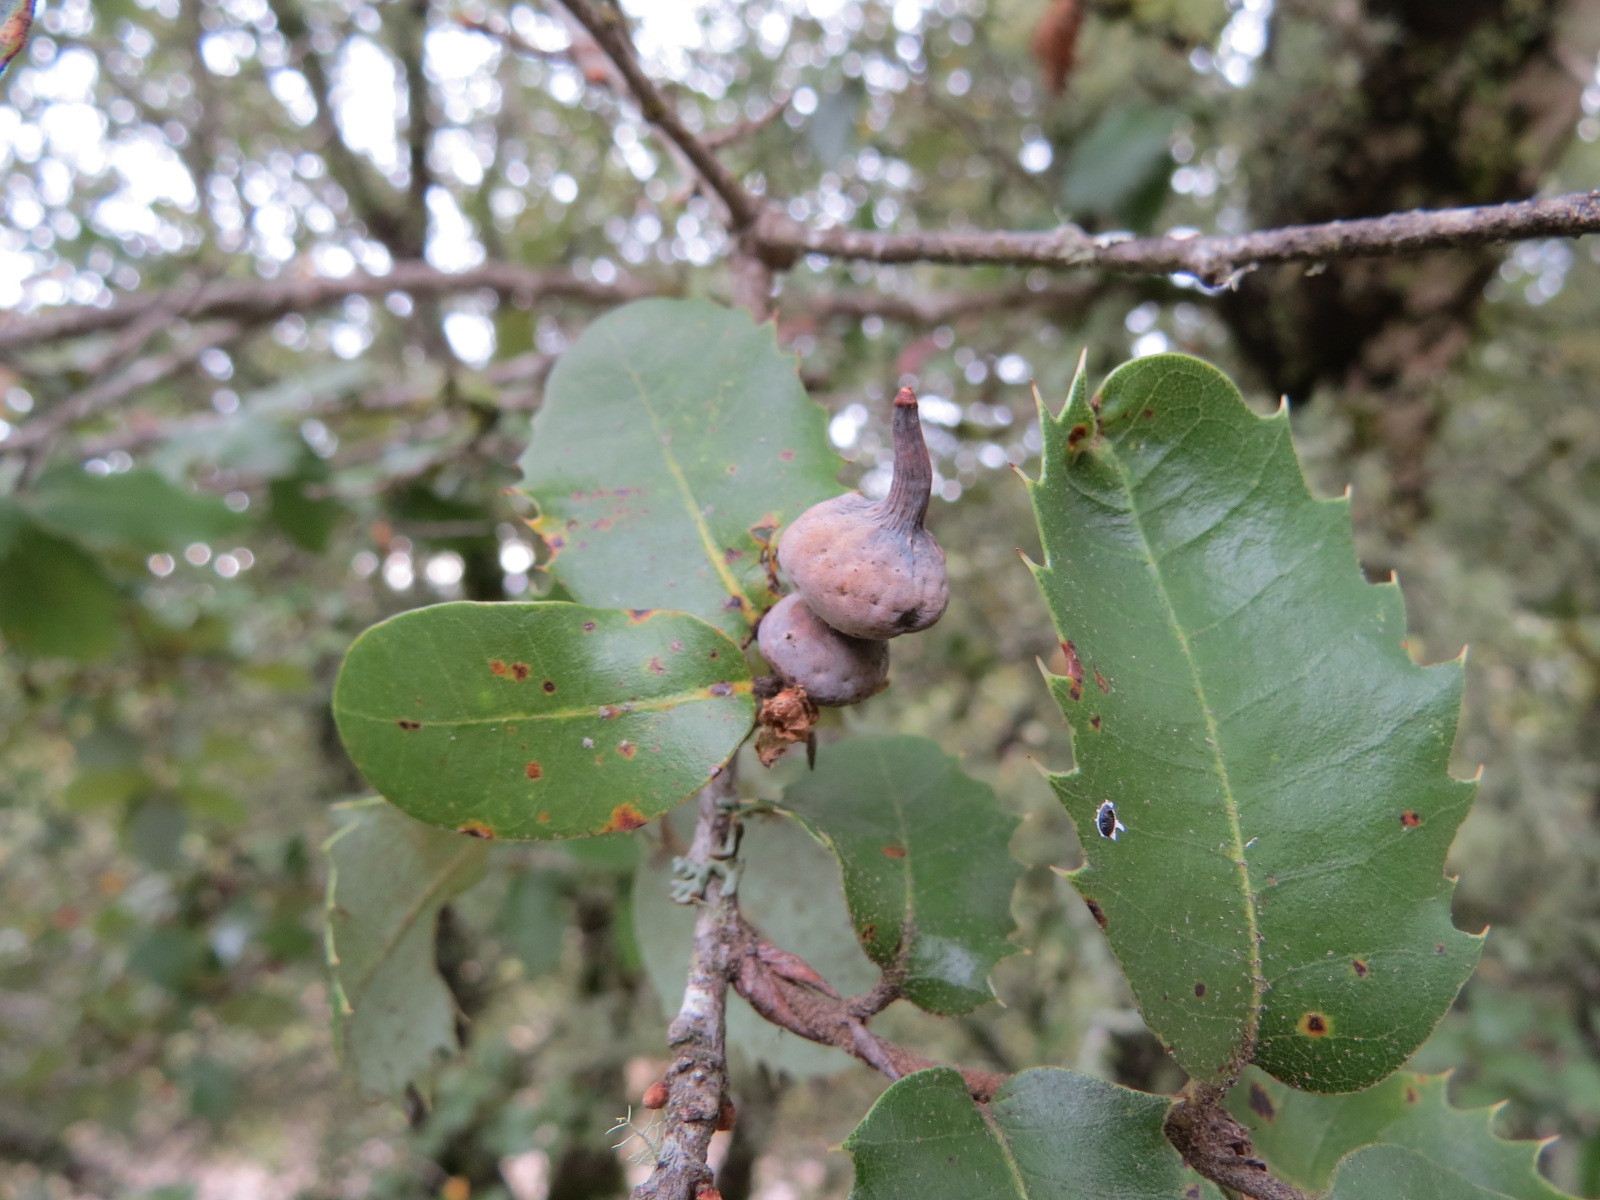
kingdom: Animalia
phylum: Arthropoda
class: Insecta
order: Hymenoptera
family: Cynipidae
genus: Heteroecus
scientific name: Heteroecus
